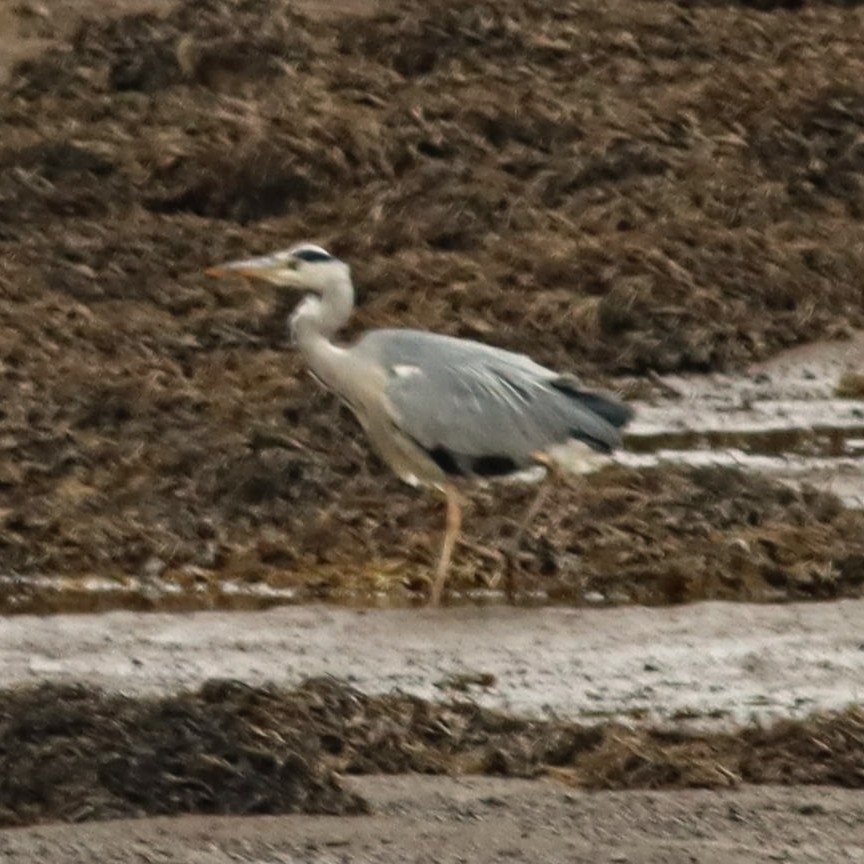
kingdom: Animalia
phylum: Chordata
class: Aves
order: Pelecaniformes
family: Ardeidae
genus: Ardea
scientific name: Ardea cinerea
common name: Grey heron
